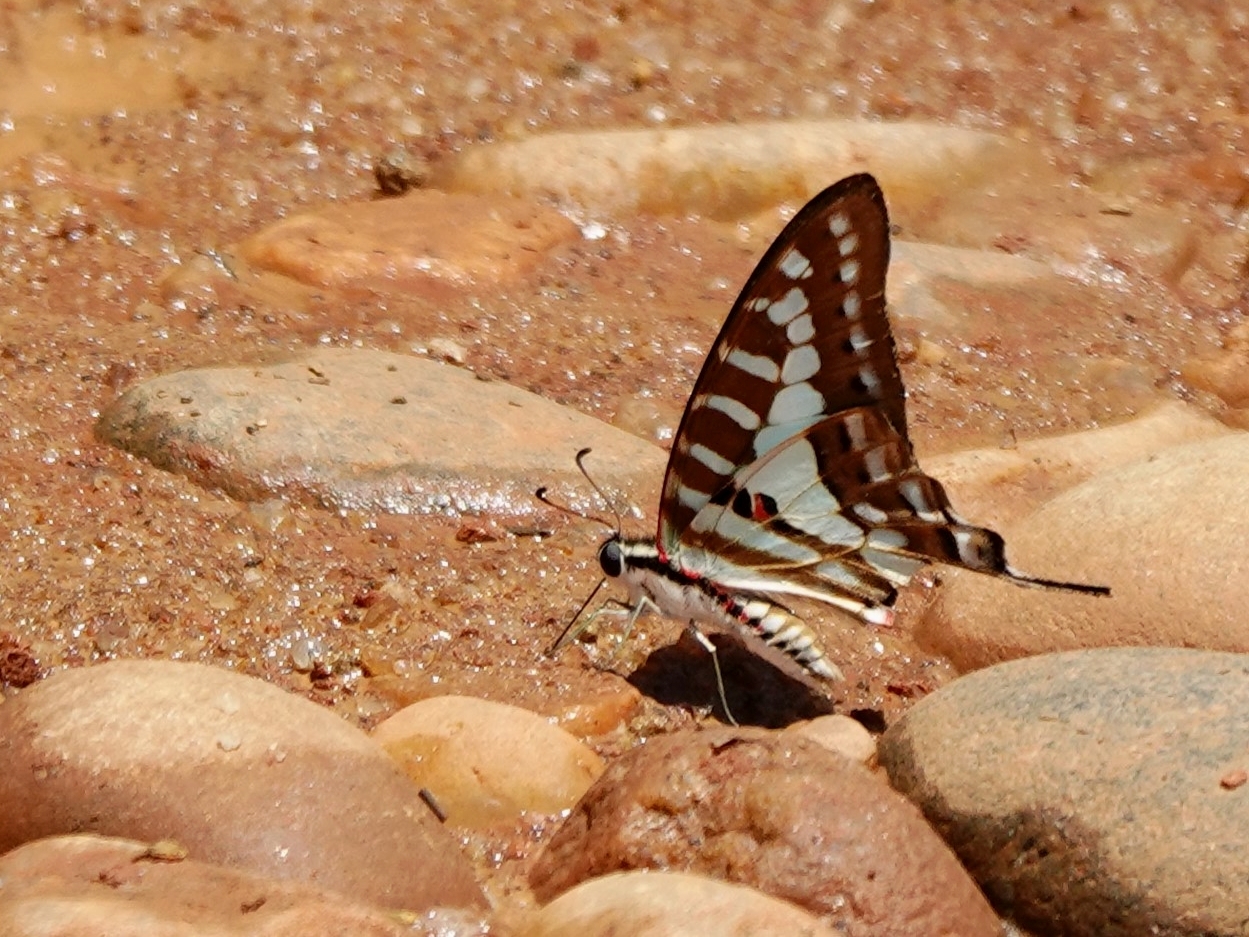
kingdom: Animalia
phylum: Arthropoda
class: Insecta
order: Lepidoptera
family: Papilionidae
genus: Graphium
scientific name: Graphium evombar
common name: Madagascan striped swordtail
